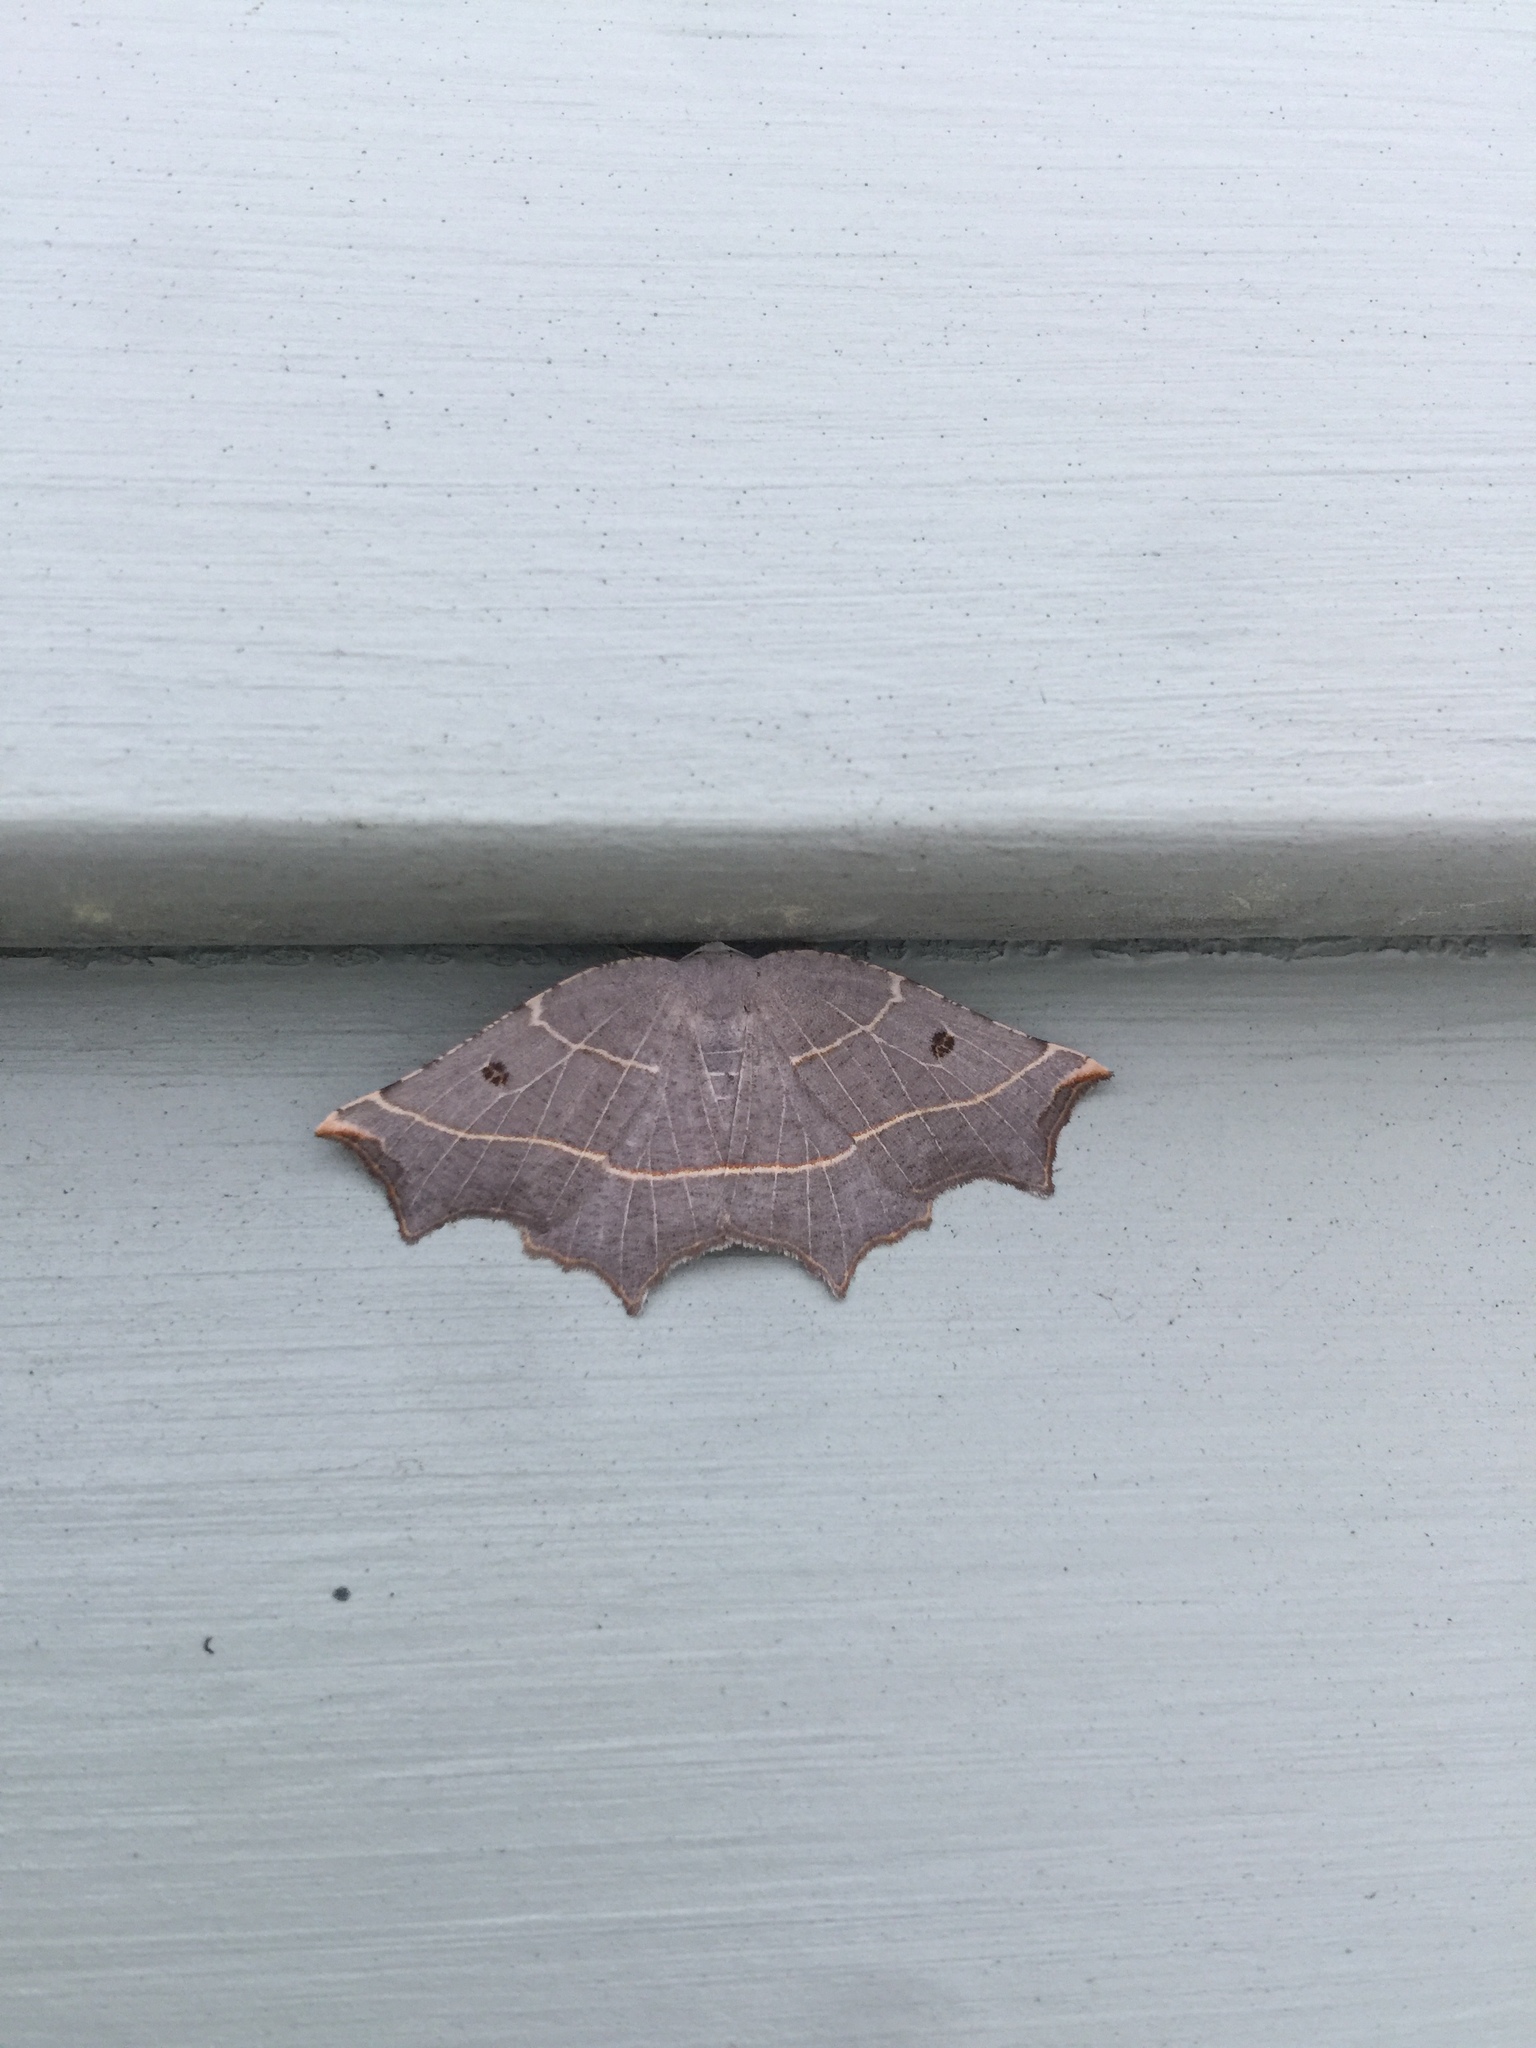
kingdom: Animalia
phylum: Arthropoda
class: Insecta
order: Lepidoptera
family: Geometridae
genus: Metanema
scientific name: Metanema inatomaria
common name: Pale metanema
